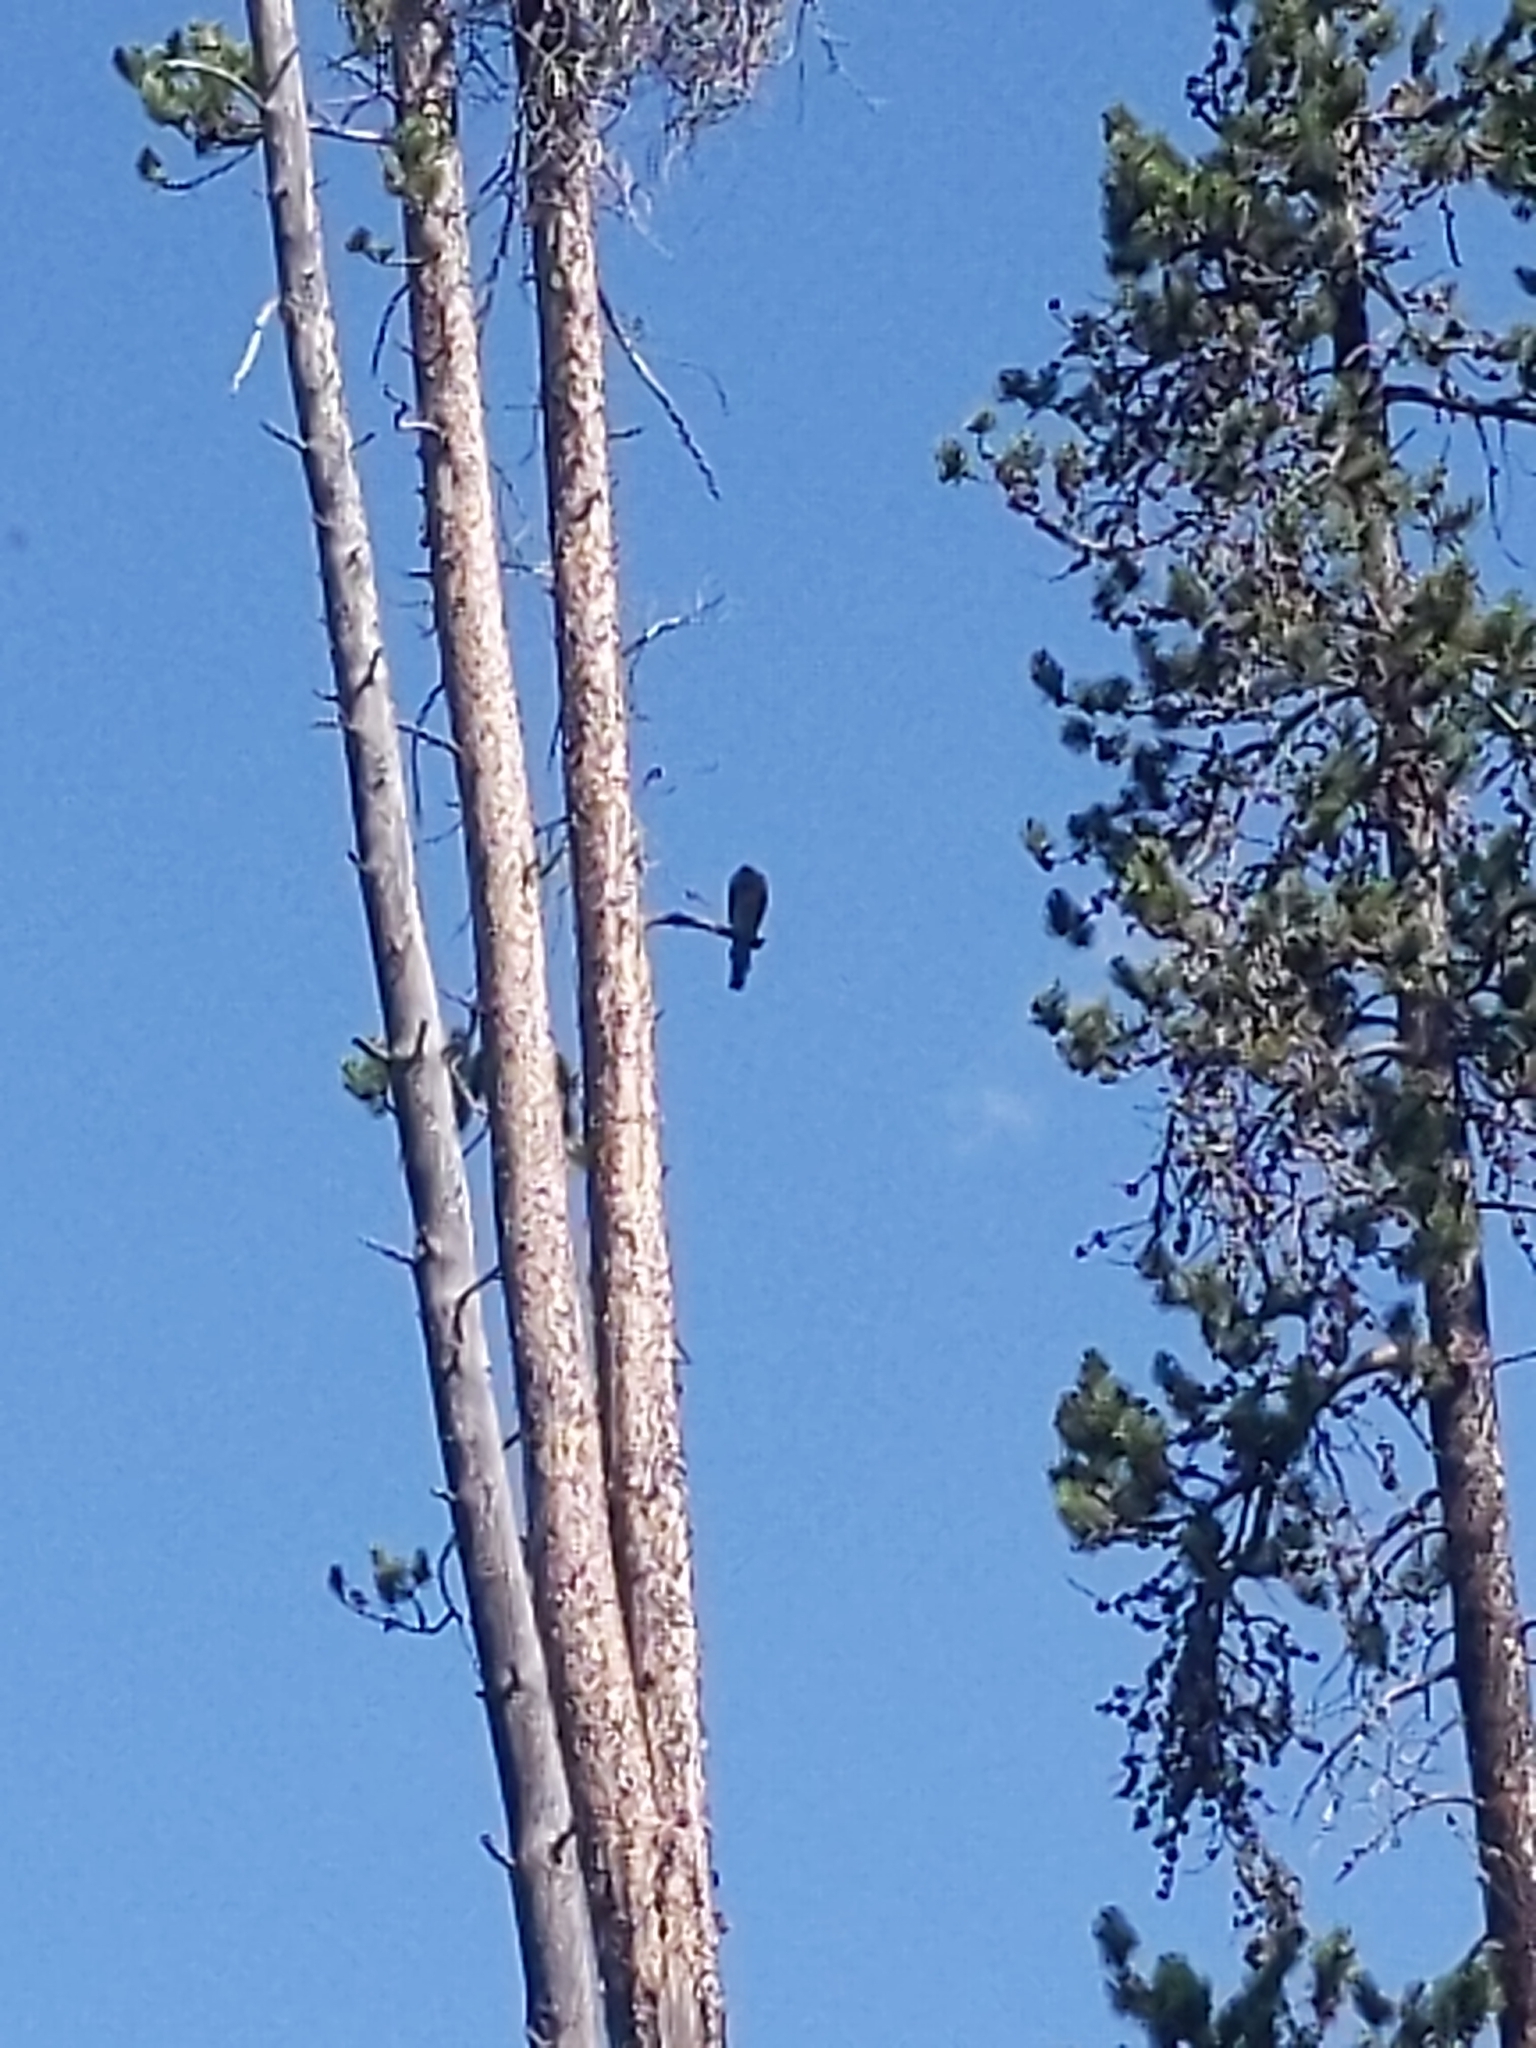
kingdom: Animalia
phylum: Chordata
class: Aves
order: Accipitriformes
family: Accipitridae
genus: Accipiter
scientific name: Accipiter striatus
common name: Sharp-shinned hawk
